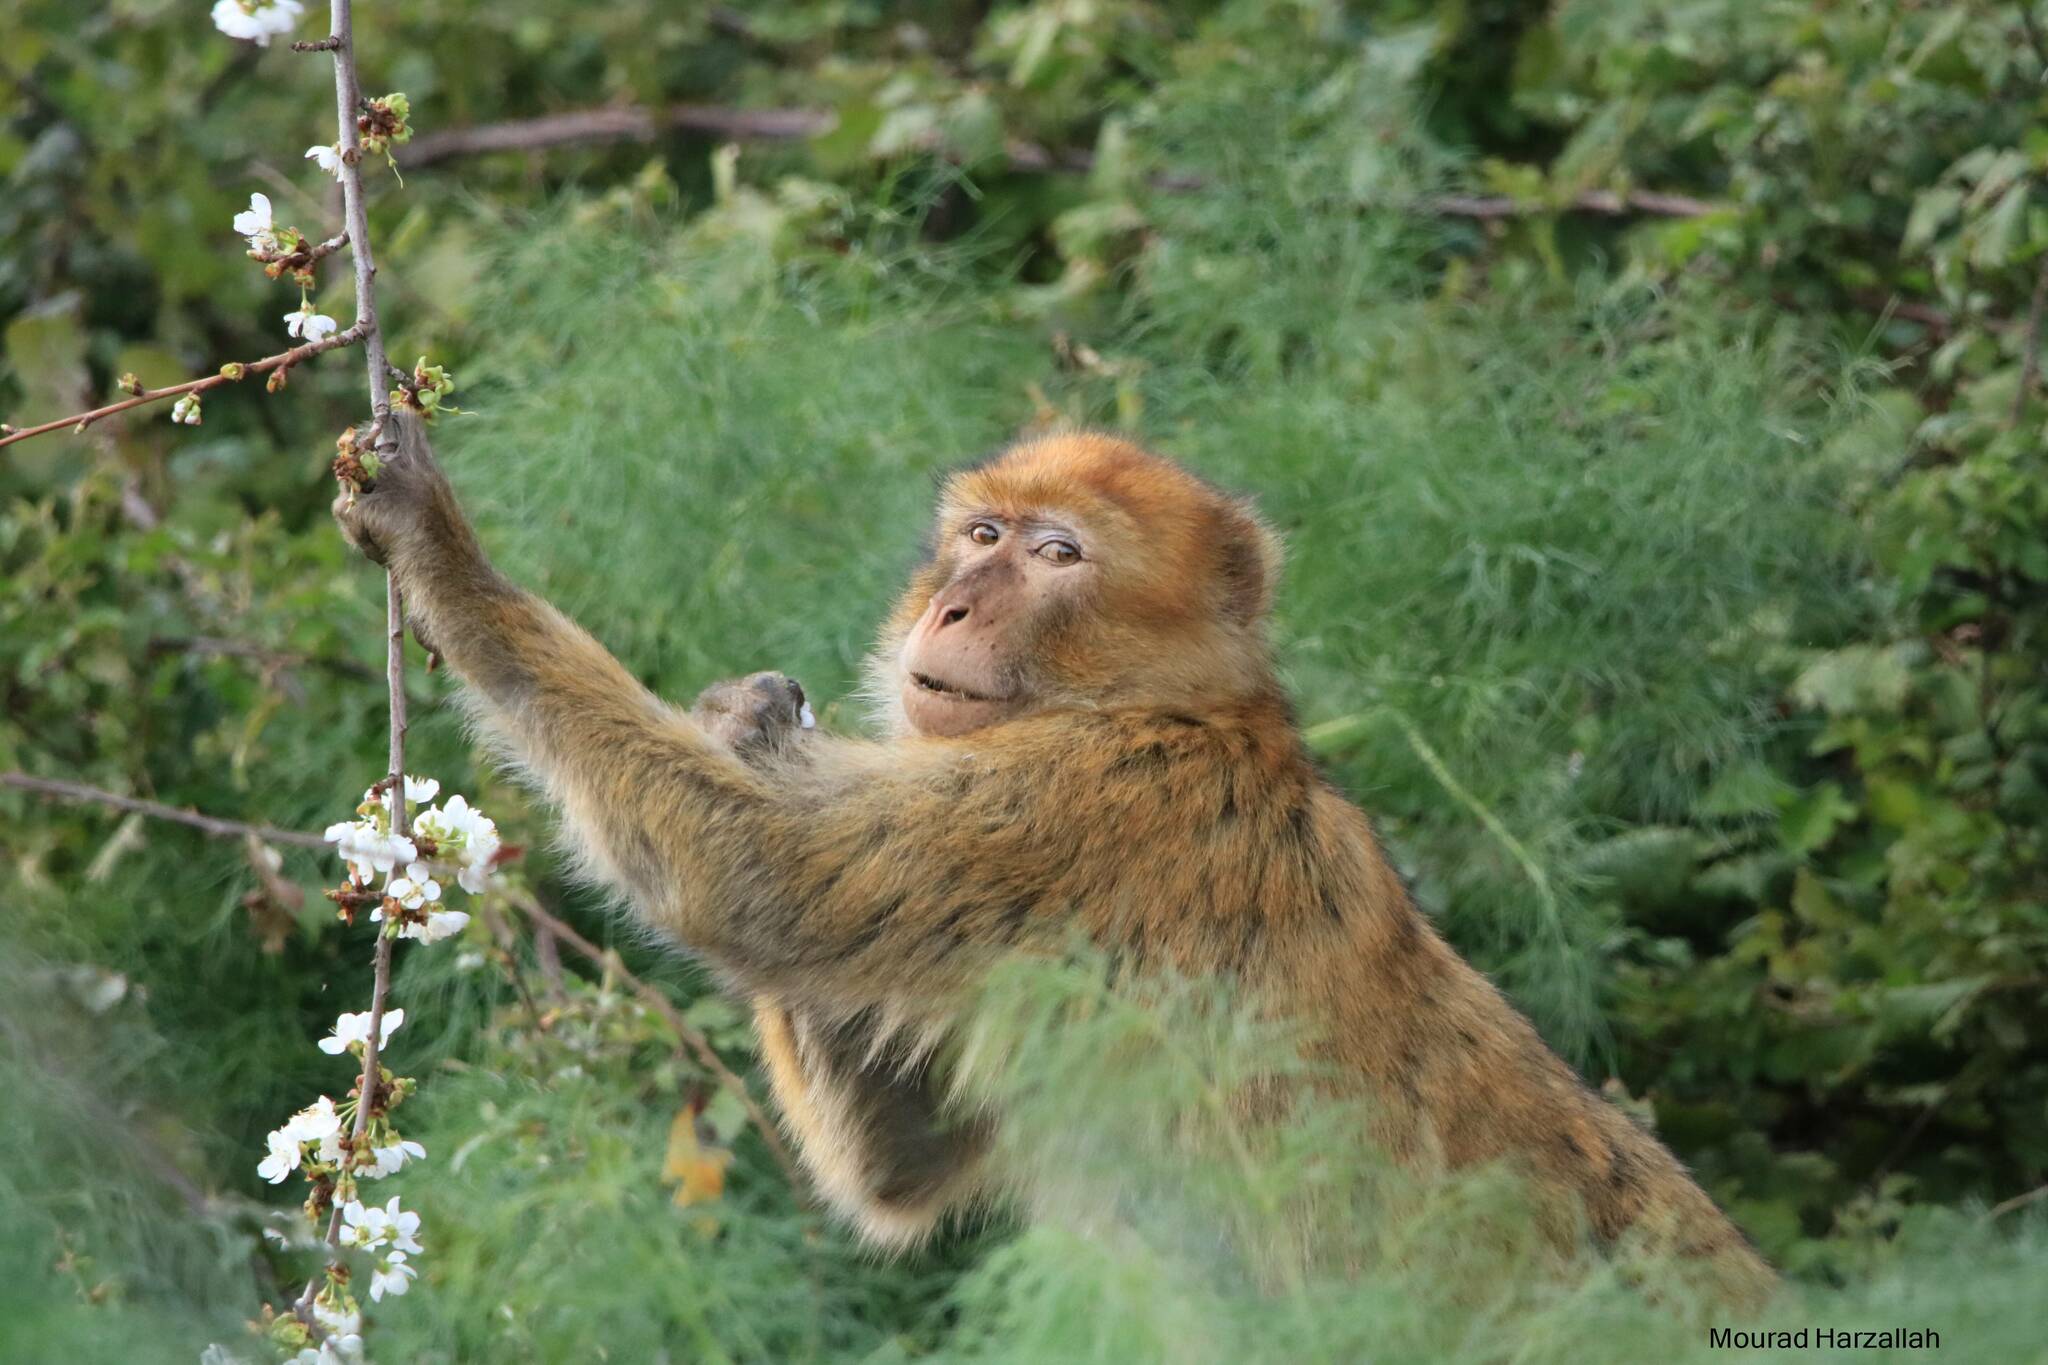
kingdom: Animalia
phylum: Chordata
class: Mammalia
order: Primates
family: Cercopithecidae
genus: Macaca
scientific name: Macaca sylvanus
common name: Barbary macaque
